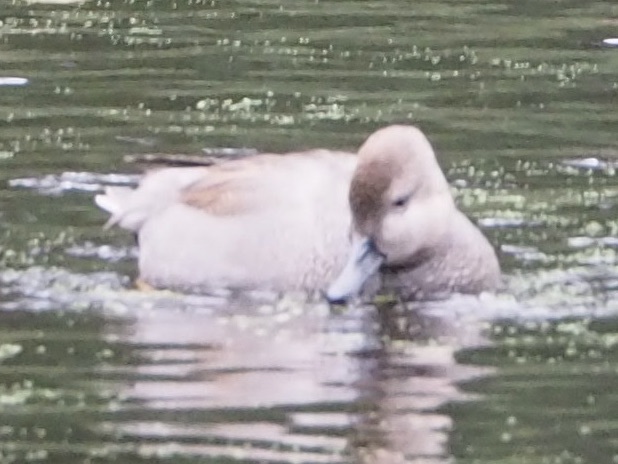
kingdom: Animalia
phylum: Chordata
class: Aves
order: Anseriformes
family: Anatidae
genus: Mareca
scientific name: Mareca strepera
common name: Gadwall
